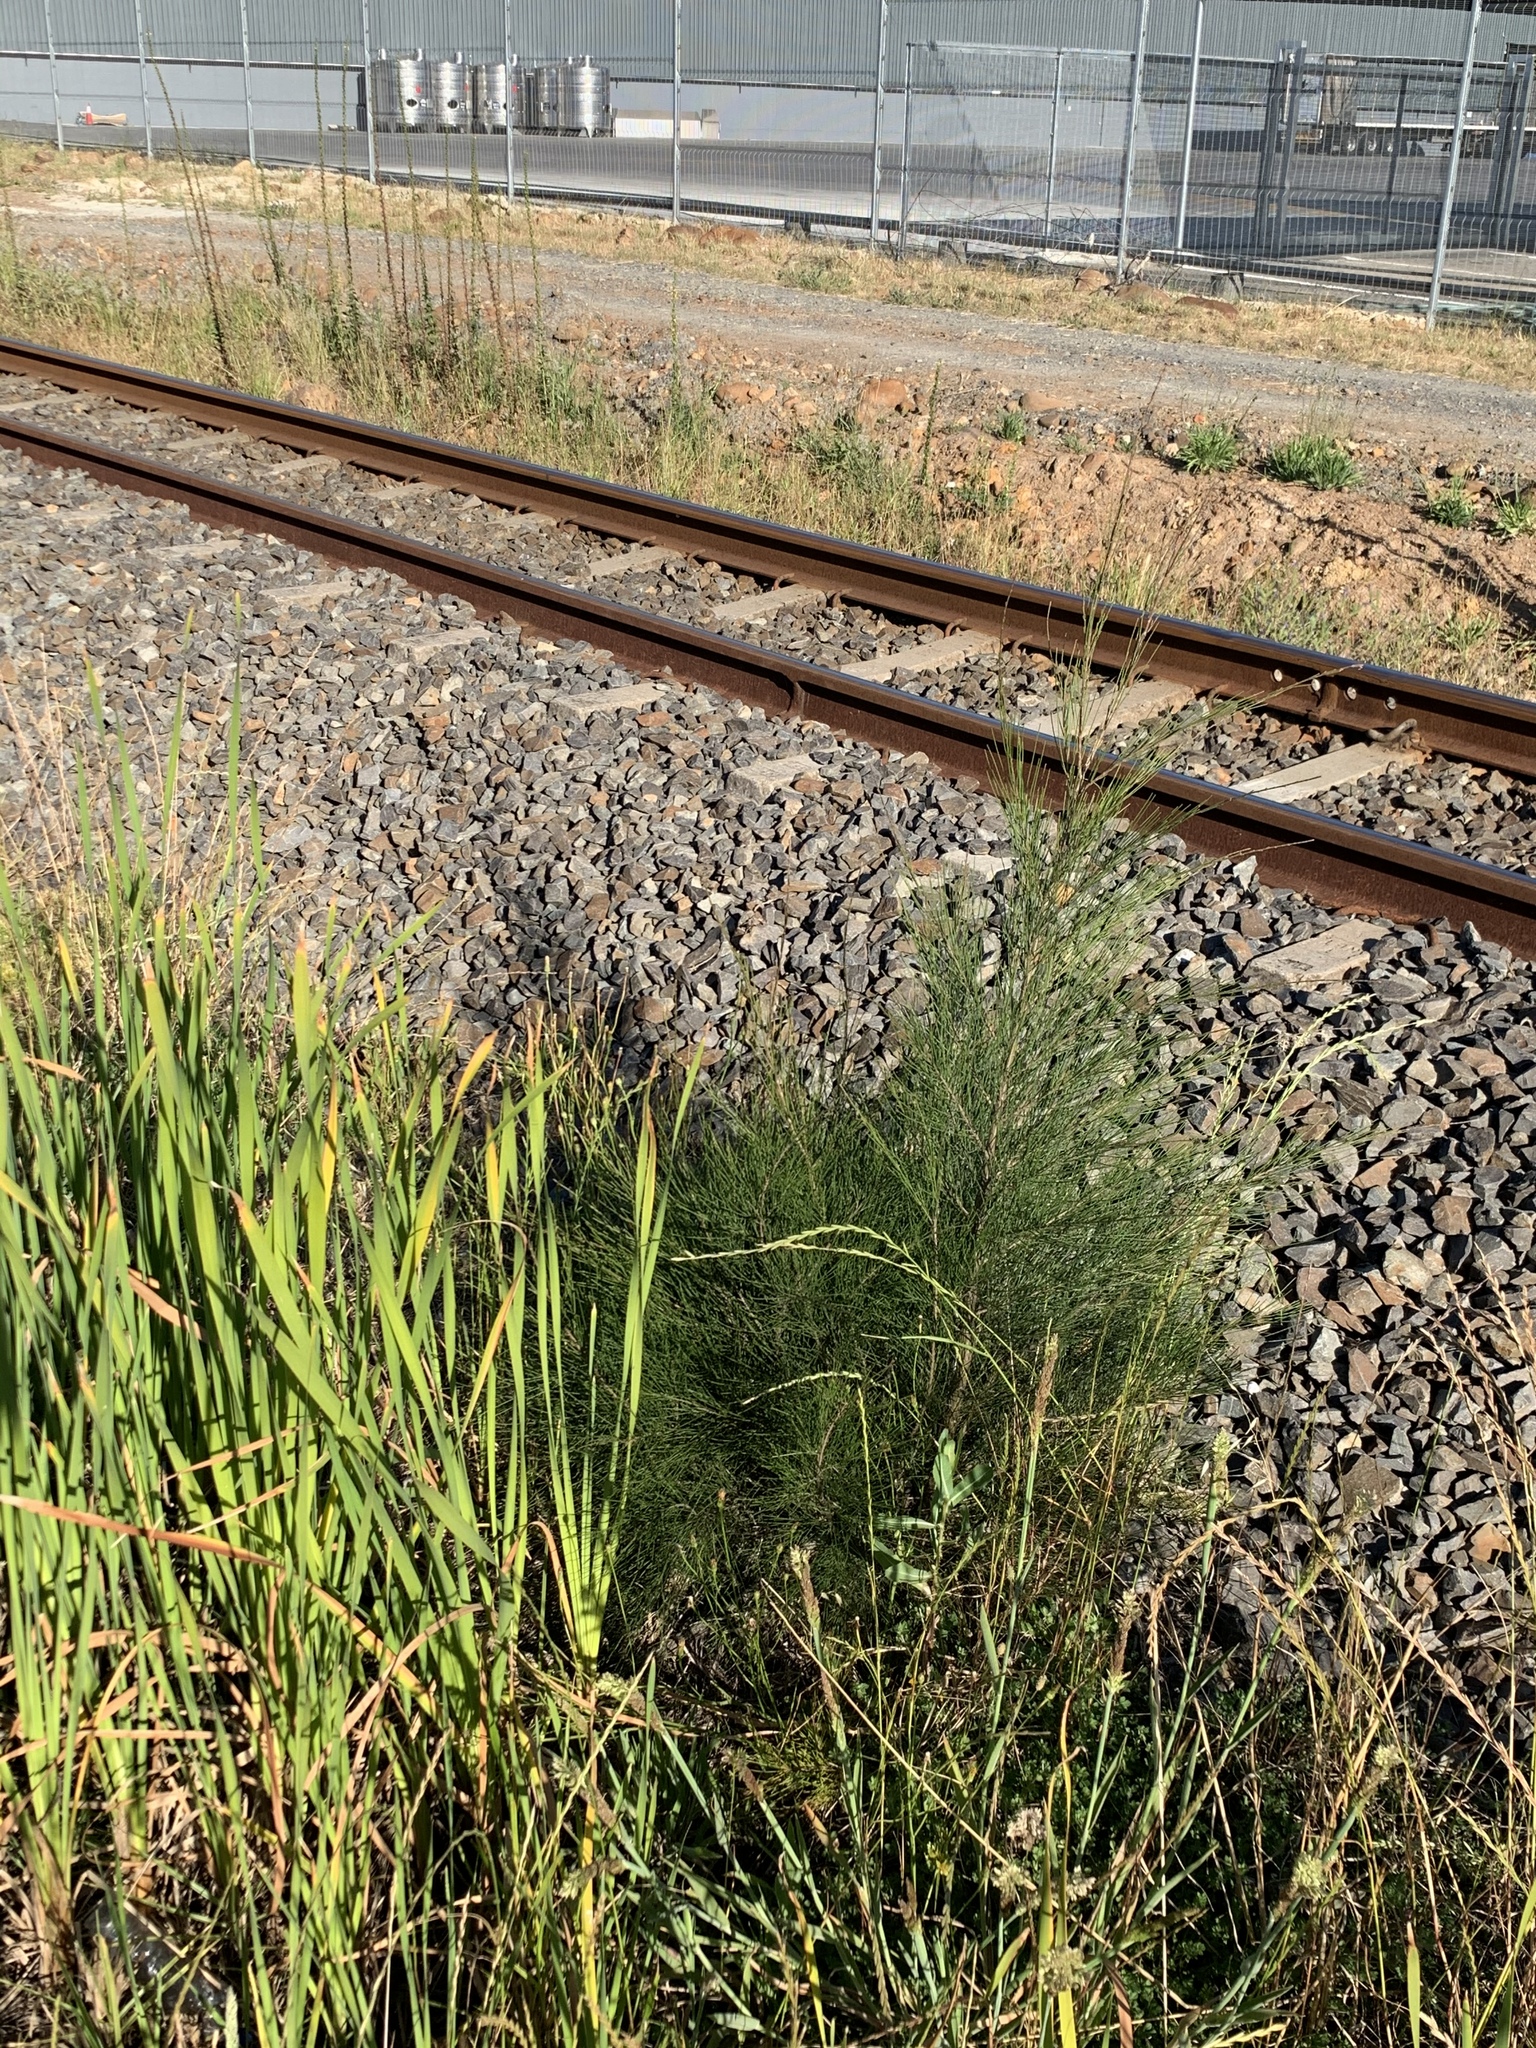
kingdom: Plantae
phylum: Tracheophyta
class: Magnoliopsida
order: Fagales
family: Casuarinaceae
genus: Casuarina
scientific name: Casuarina cunninghamiana
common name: River sheoak
